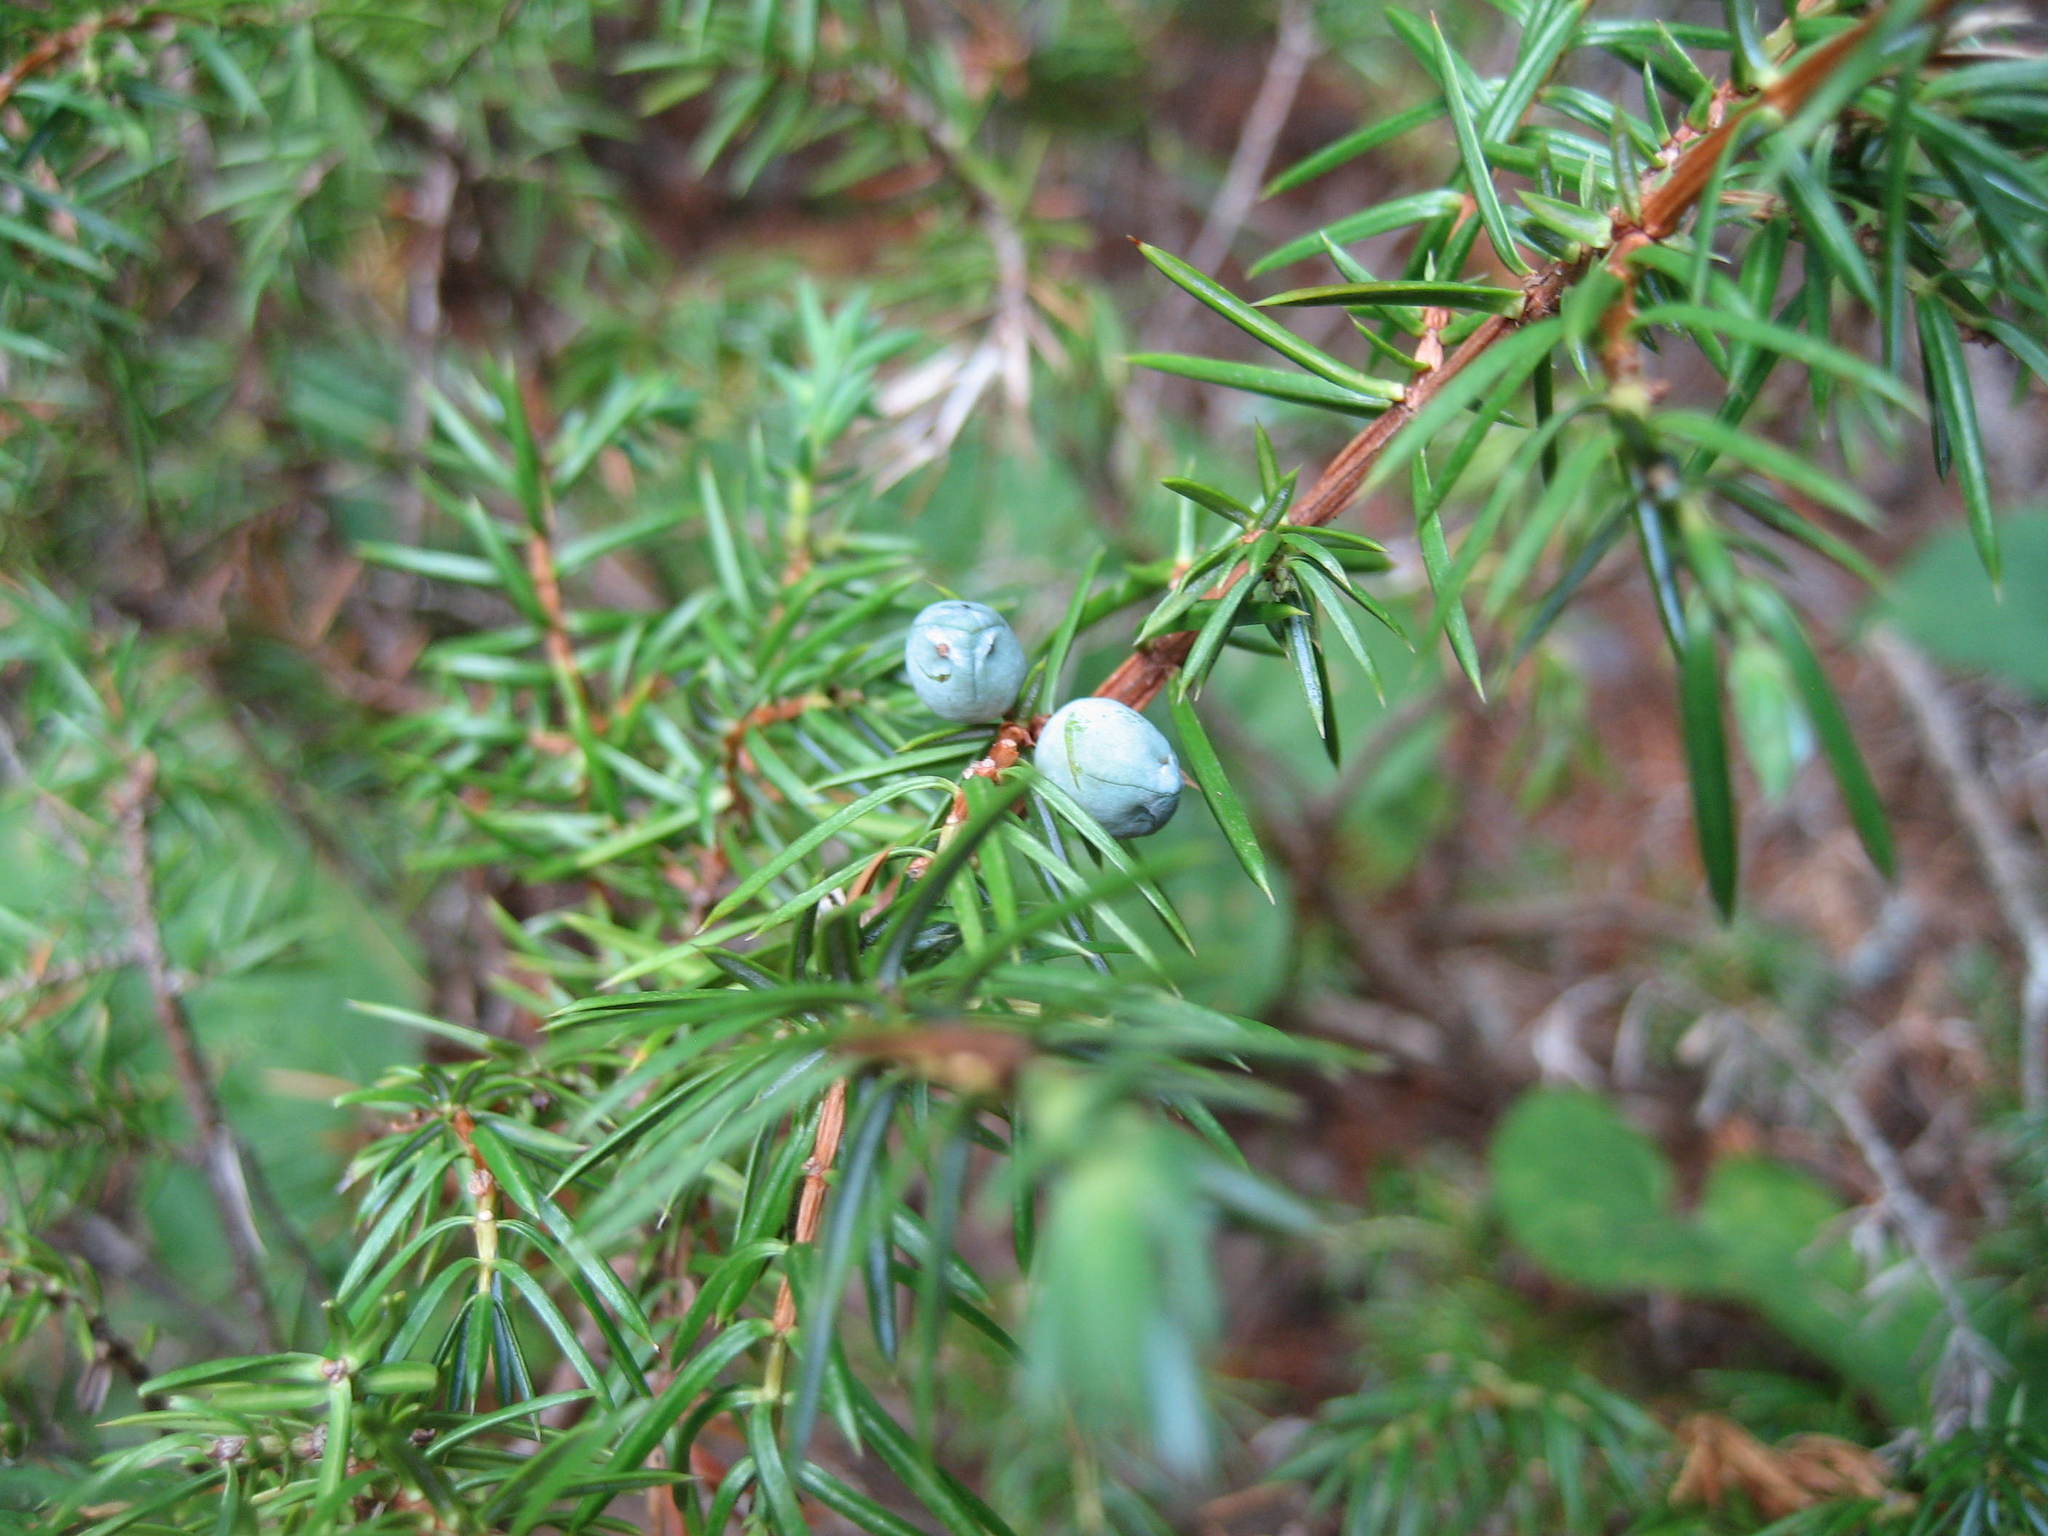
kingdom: Plantae
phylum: Tracheophyta
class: Pinopsida
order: Pinales
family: Cupressaceae
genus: Juniperus
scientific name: Juniperus communis
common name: Common juniper
